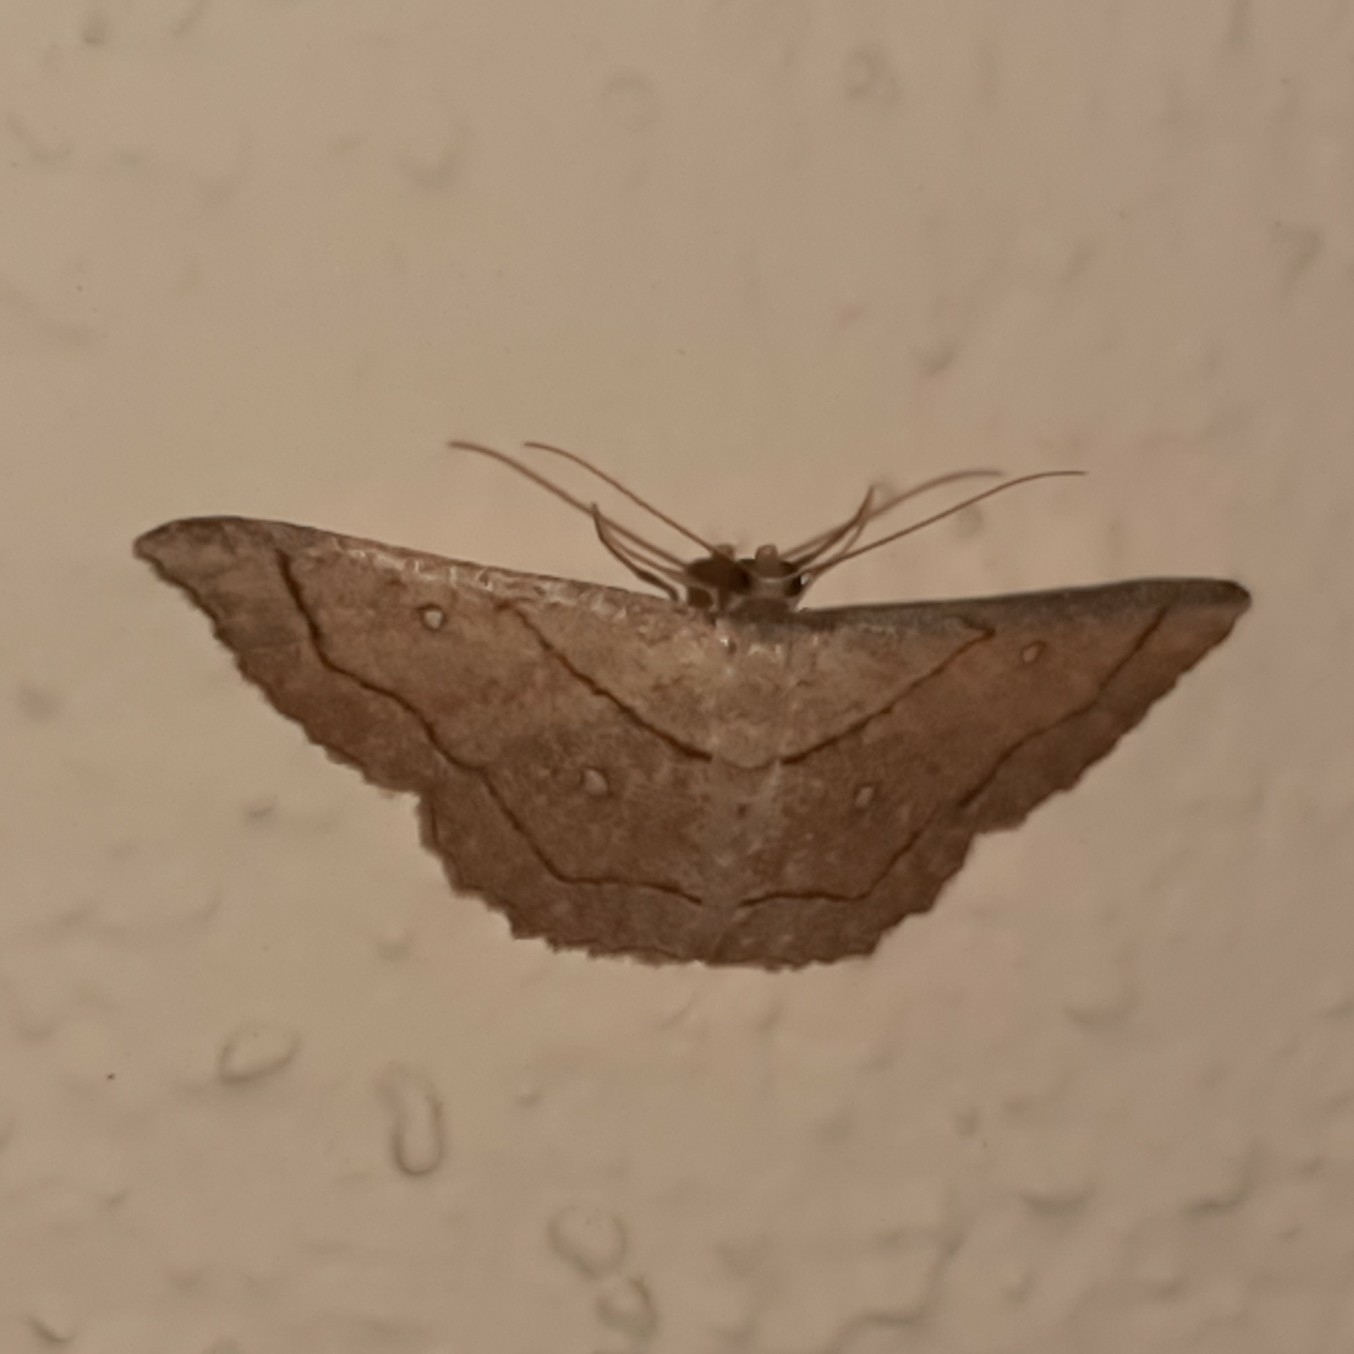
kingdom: Animalia
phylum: Arthropoda
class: Insecta
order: Lepidoptera
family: Geometridae
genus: Cyclophora
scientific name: Cyclophora coecaria
